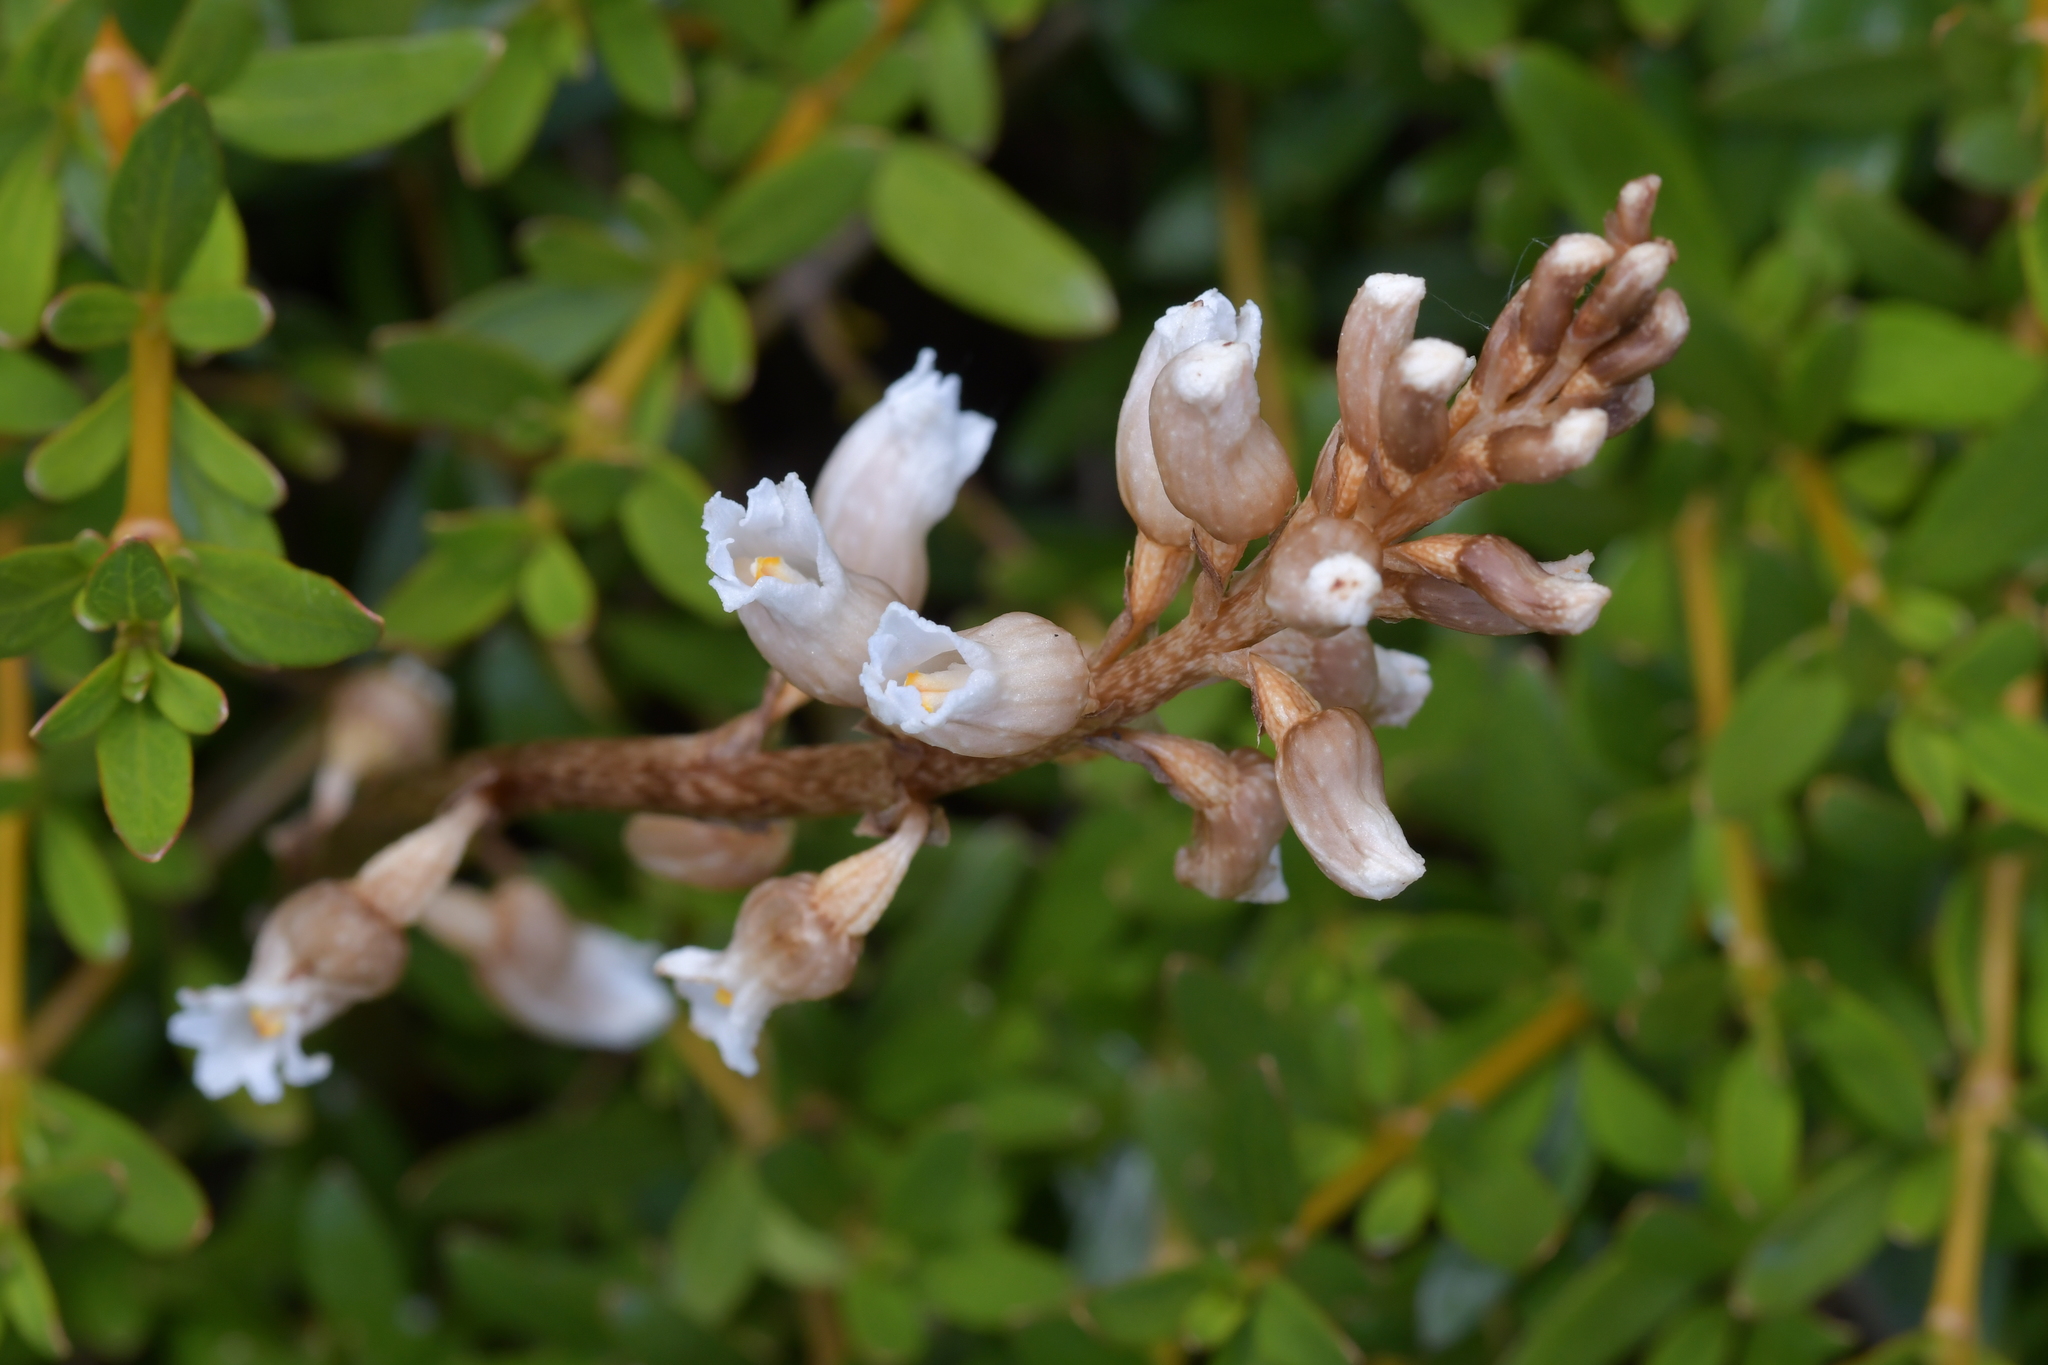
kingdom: Plantae
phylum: Tracheophyta
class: Liliopsida
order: Asparagales
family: Orchidaceae
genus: Gastrodia
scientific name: Gastrodia sesamoides
